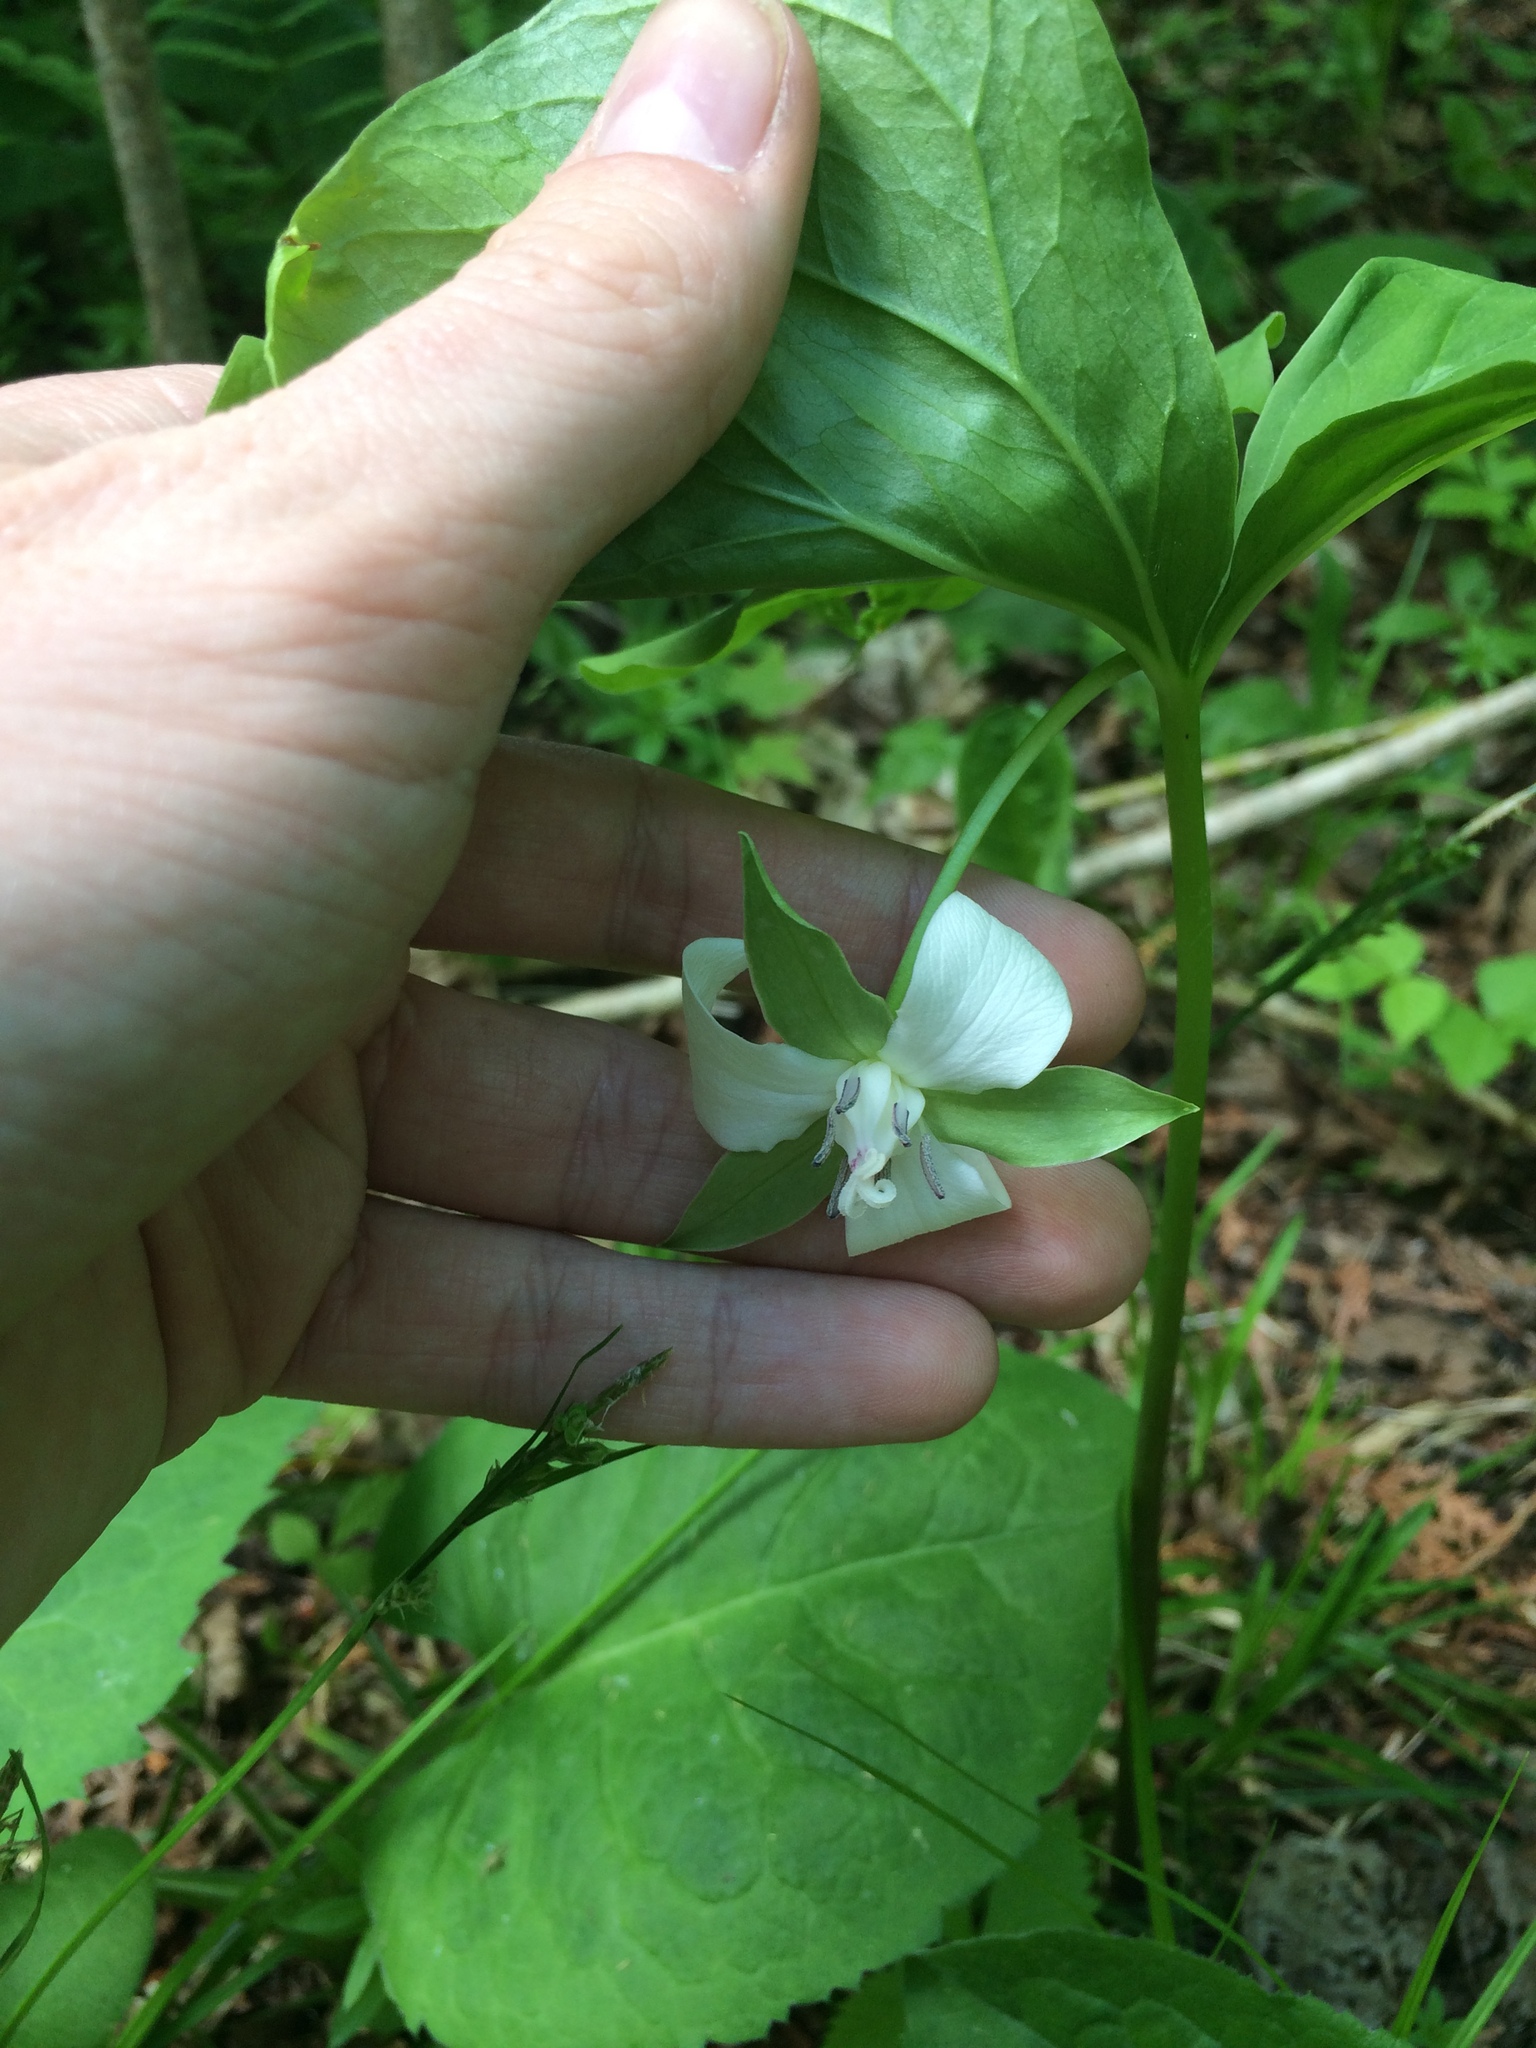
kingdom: Plantae
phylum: Tracheophyta
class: Liliopsida
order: Liliales
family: Melanthiaceae
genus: Trillium
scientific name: Trillium cernuum
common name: Nodding trillium
